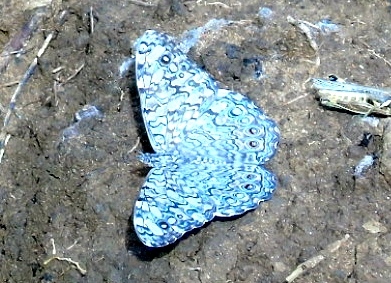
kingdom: Animalia
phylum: Arthropoda
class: Insecta
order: Lepidoptera
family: Nymphalidae
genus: Hamadryas
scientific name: Hamadryas februa
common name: Gray cracker
